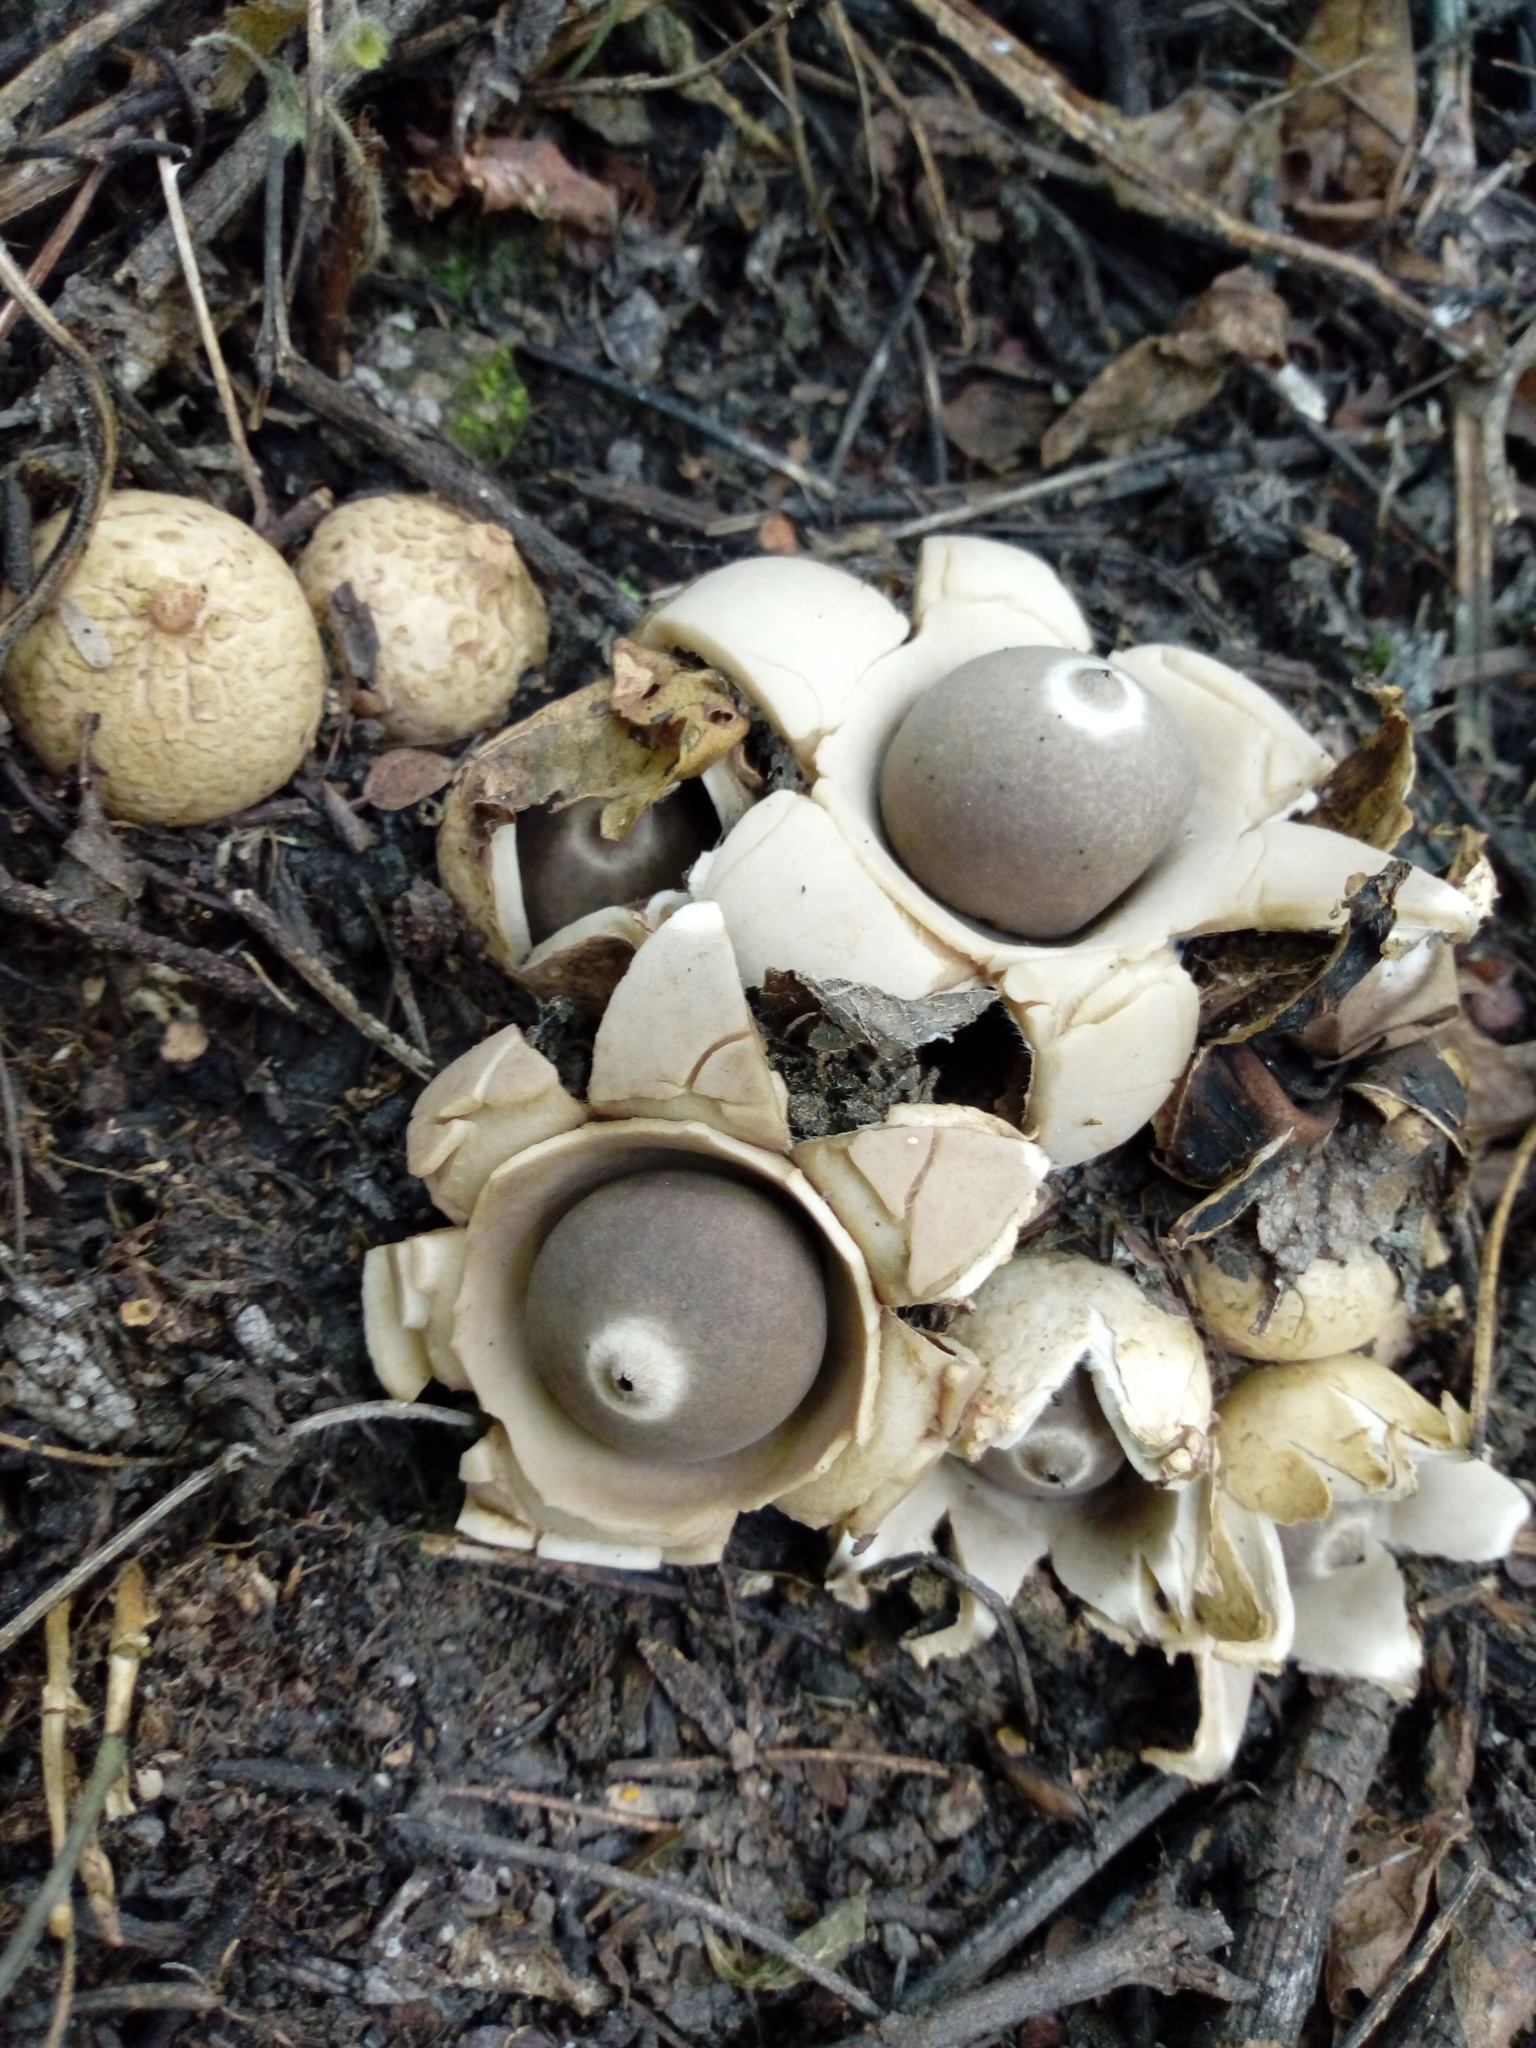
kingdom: Fungi
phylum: Basidiomycota
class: Agaricomycetes
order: Geastrales
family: Geastraceae
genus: Geastrum
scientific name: Geastrum triplex
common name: Collared earthstar
